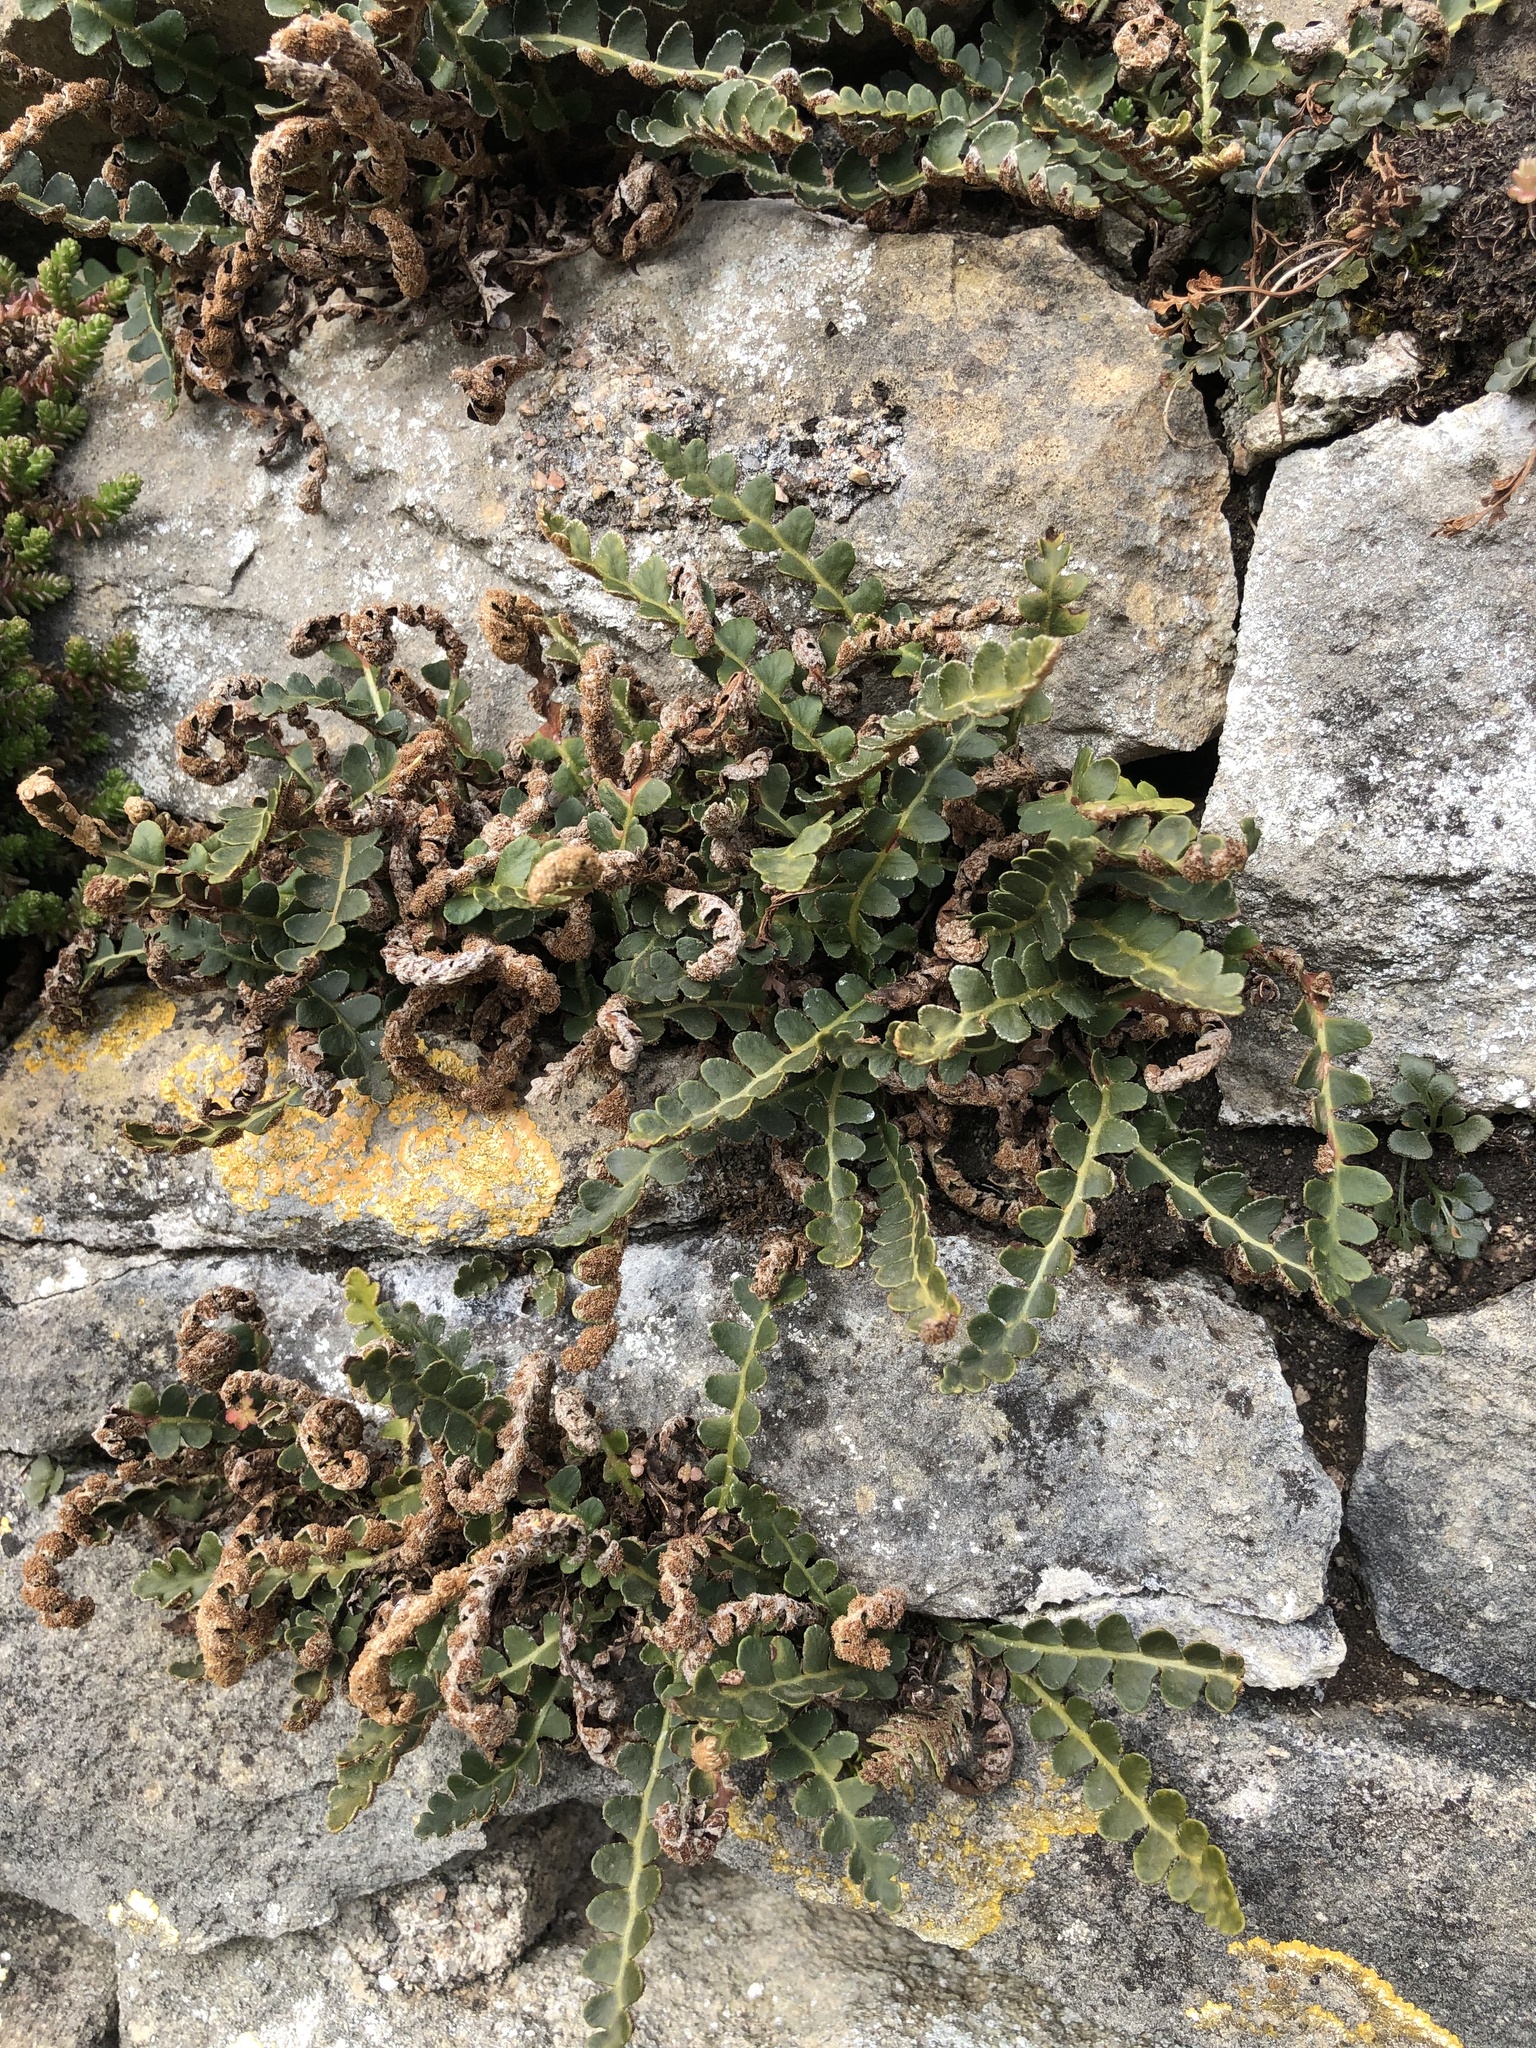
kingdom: Plantae
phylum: Tracheophyta
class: Polypodiopsida
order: Polypodiales
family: Aspleniaceae
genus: Asplenium
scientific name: Asplenium ceterach
